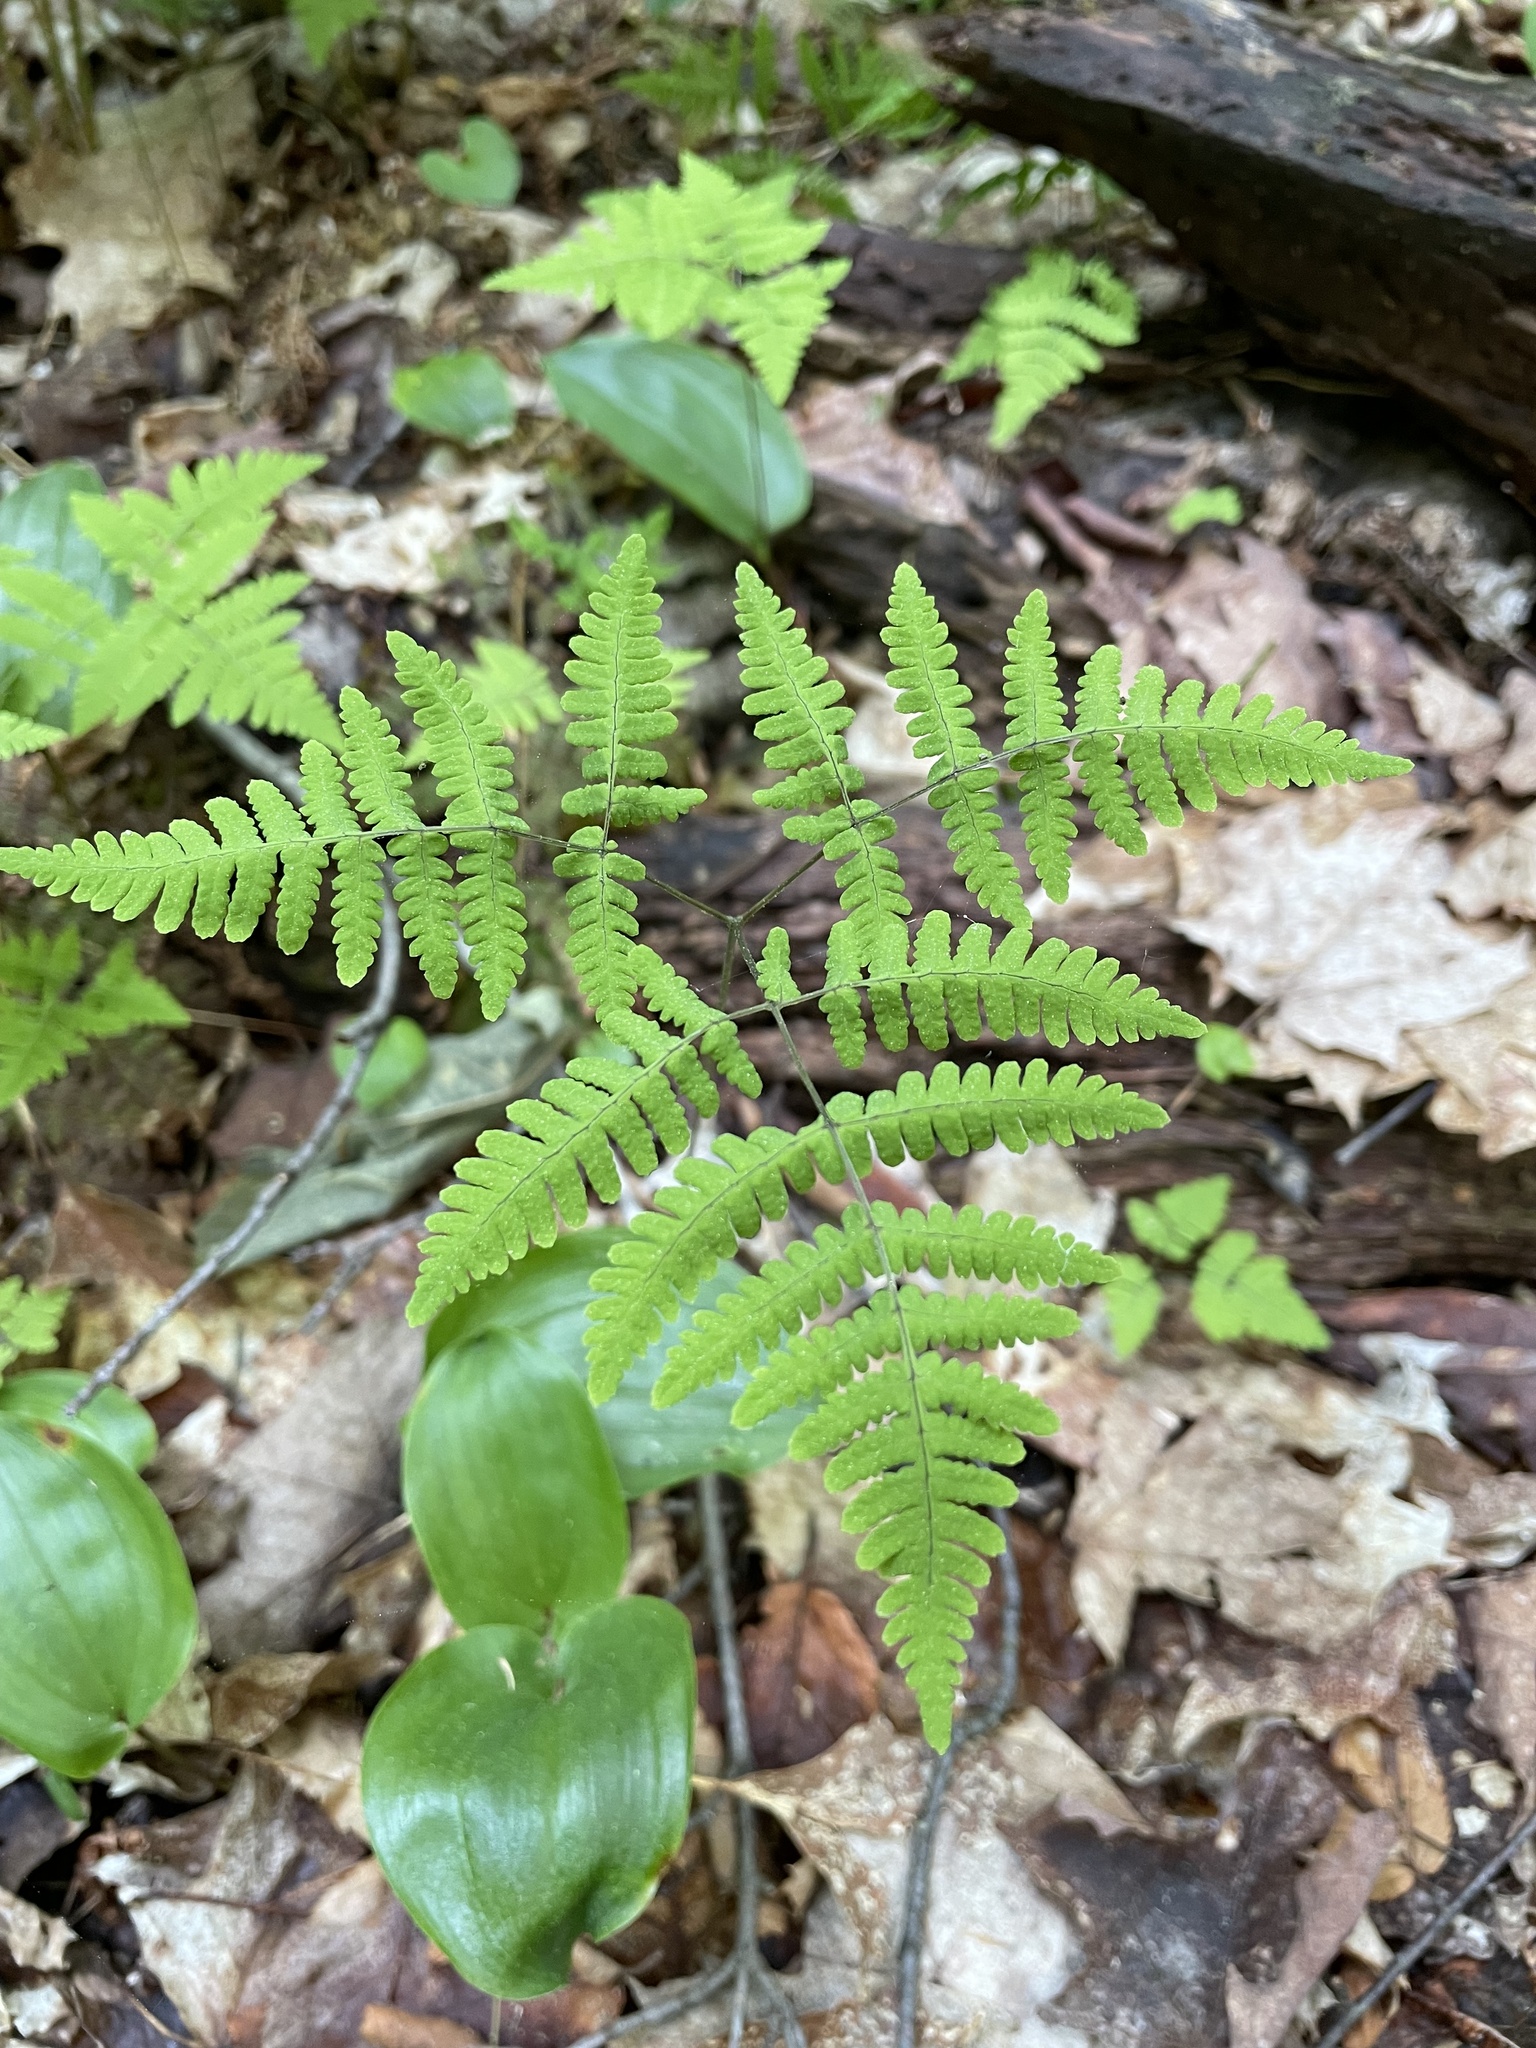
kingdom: Plantae
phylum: Tracheophyta
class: Polypodiopsida
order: Polypodiales
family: Cystopteridaceae
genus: Gymnocarpium
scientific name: Gymnocarpium dryopteris
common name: Oak fern
